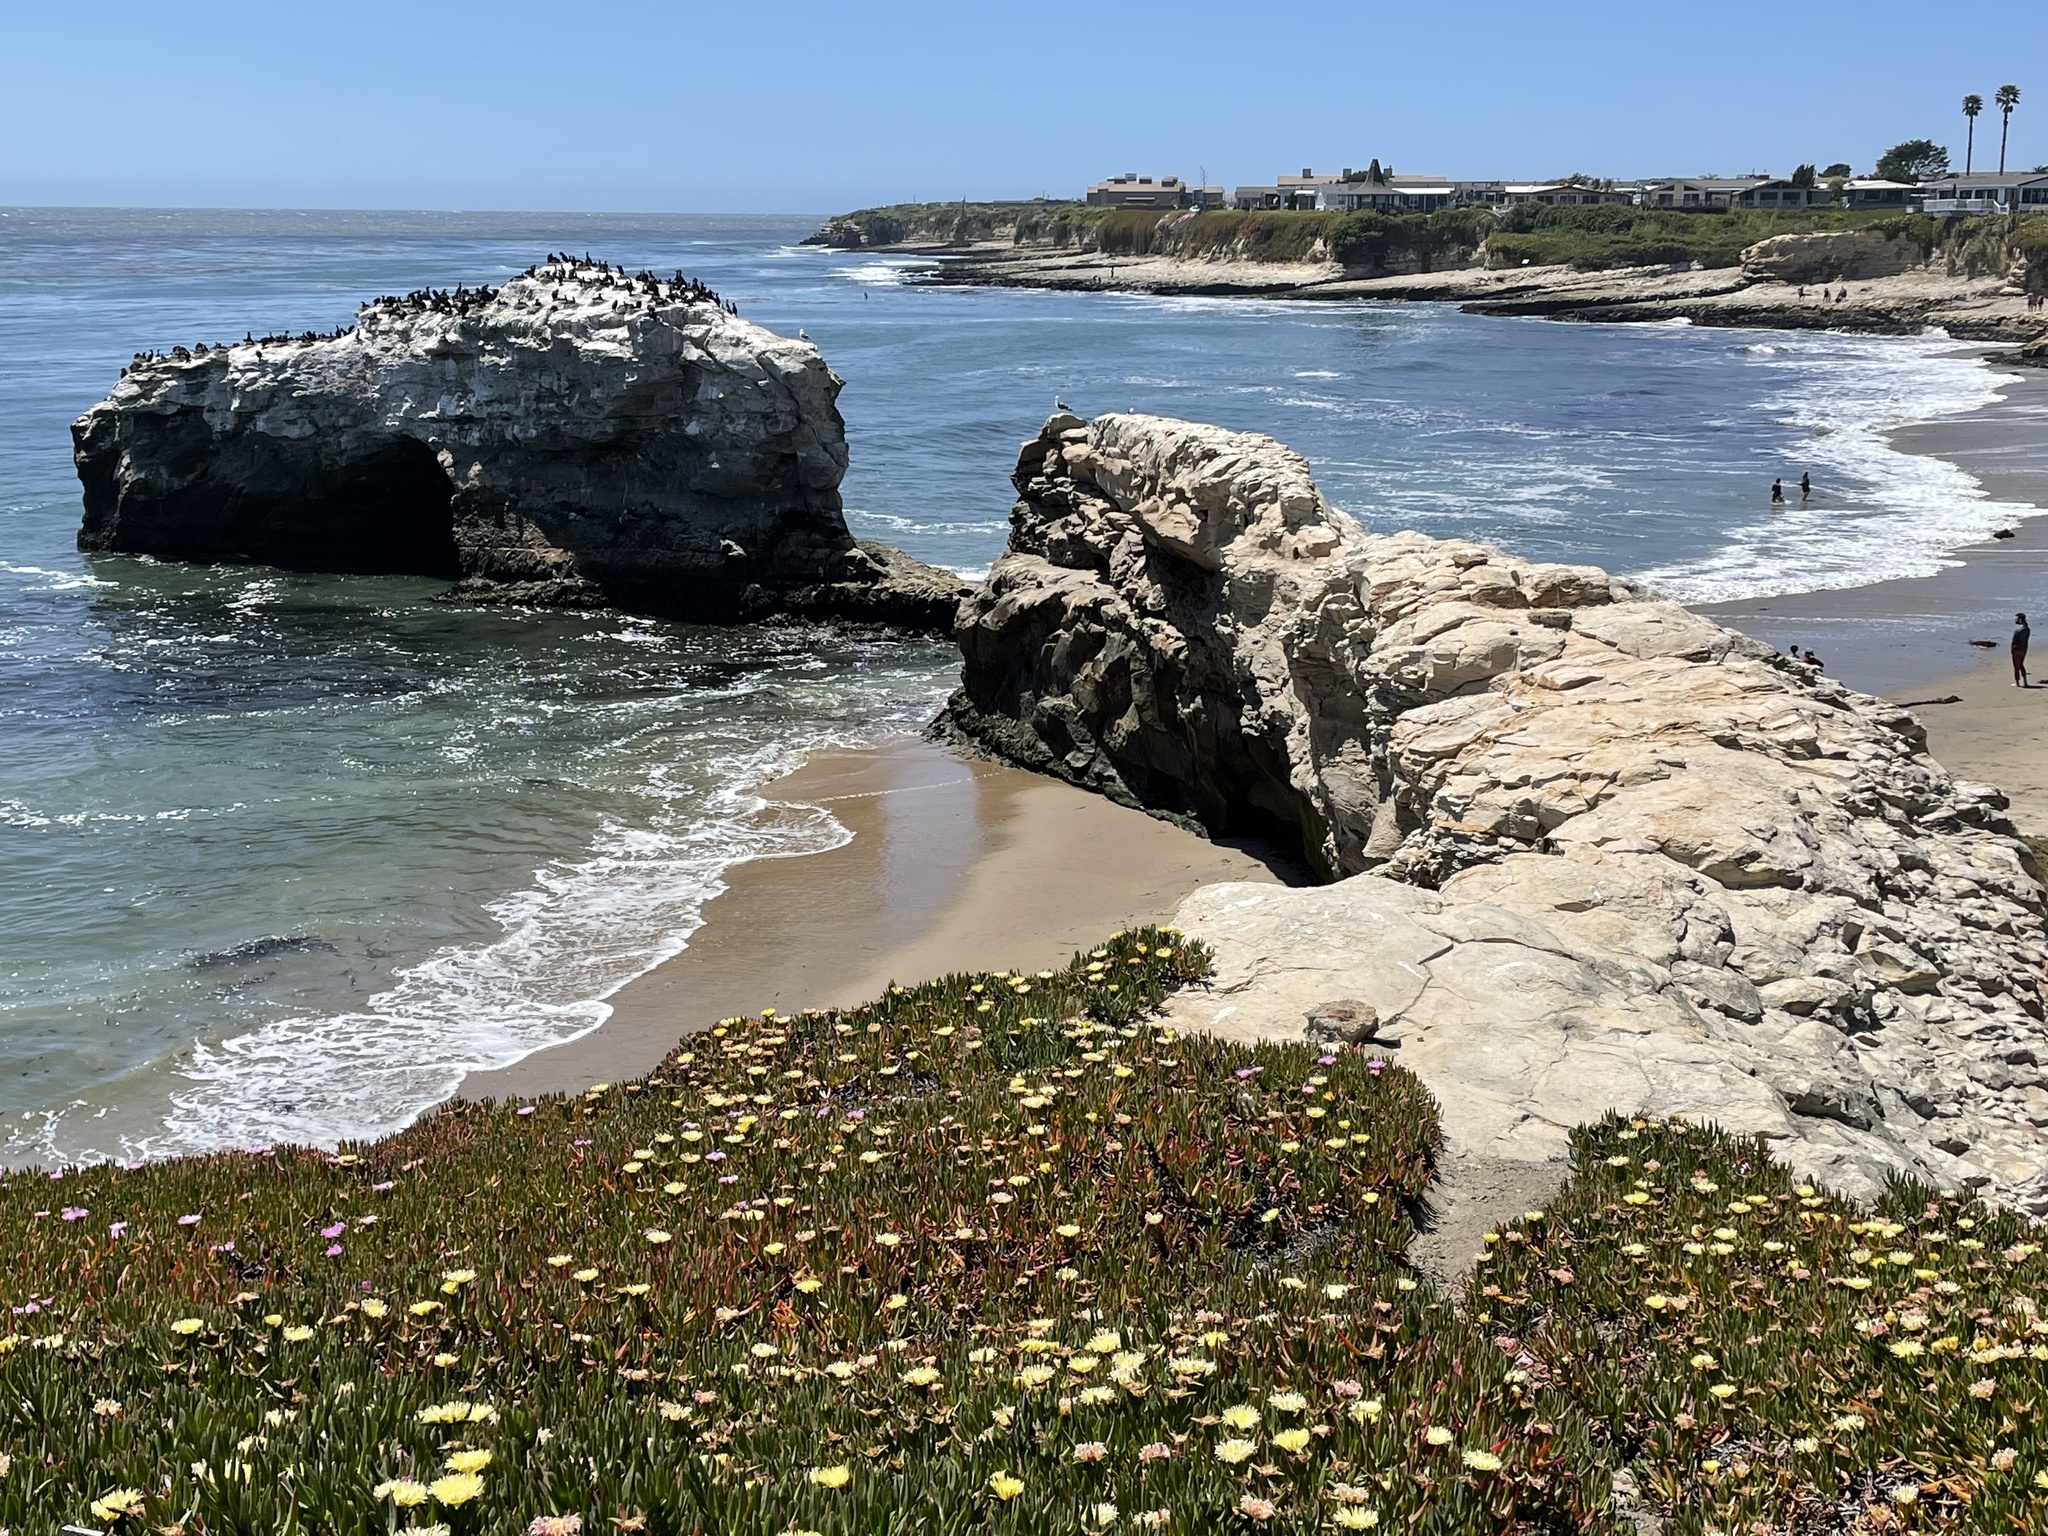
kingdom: Animalia
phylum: Chordata
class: Aves
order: Suliformes
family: Phalacrocoracidae
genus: Urile
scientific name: Urile penicillatus
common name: Brandt's cormorant
